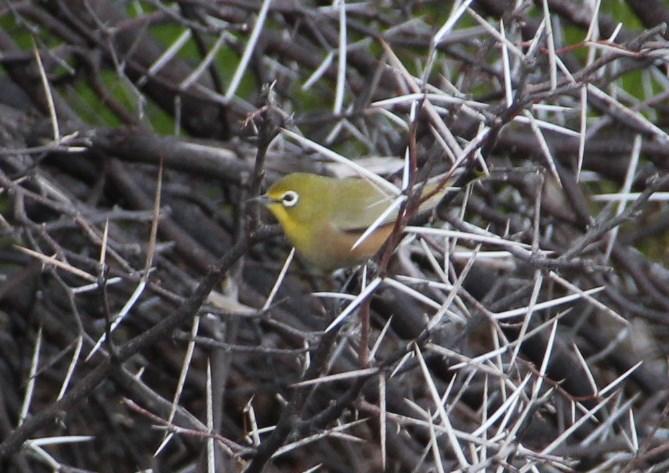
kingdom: Animalia
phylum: Chordata
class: Aves
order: Passeriformes
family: Zosteropidae
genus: Zosterops
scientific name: Zosterops pallidus
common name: Orange river white-eye
